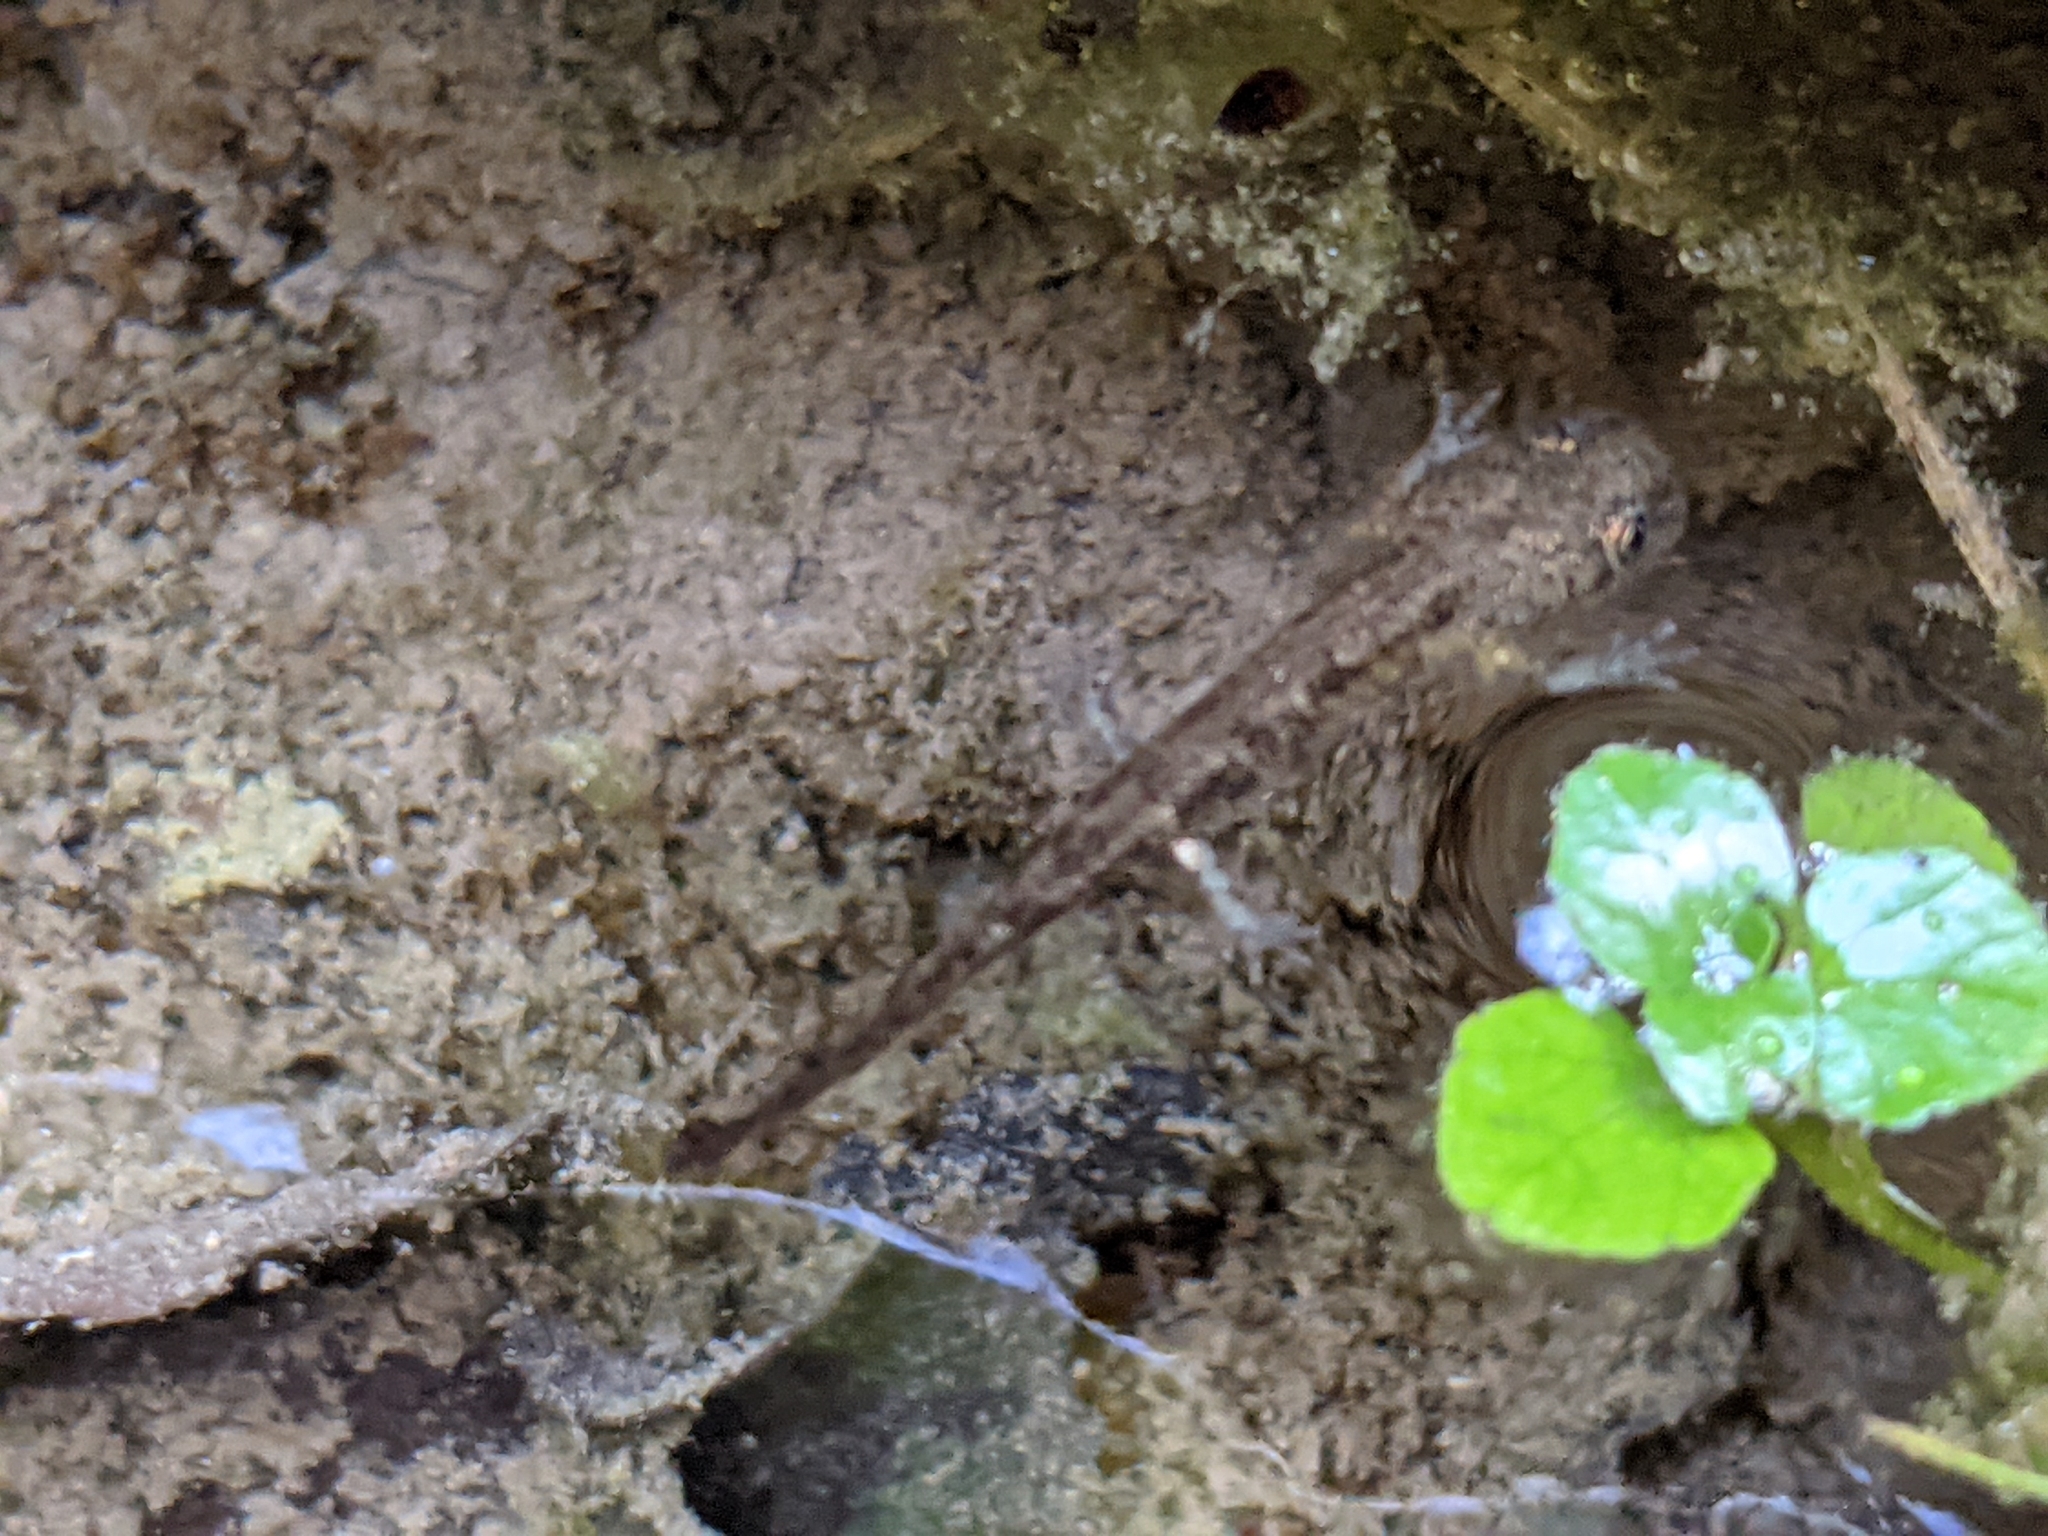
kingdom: Animalia
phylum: Chordata
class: Amphibia
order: Caudata
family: Salamandridae
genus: Salamandra
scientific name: Salamandra salamandra
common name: Fire salamander
